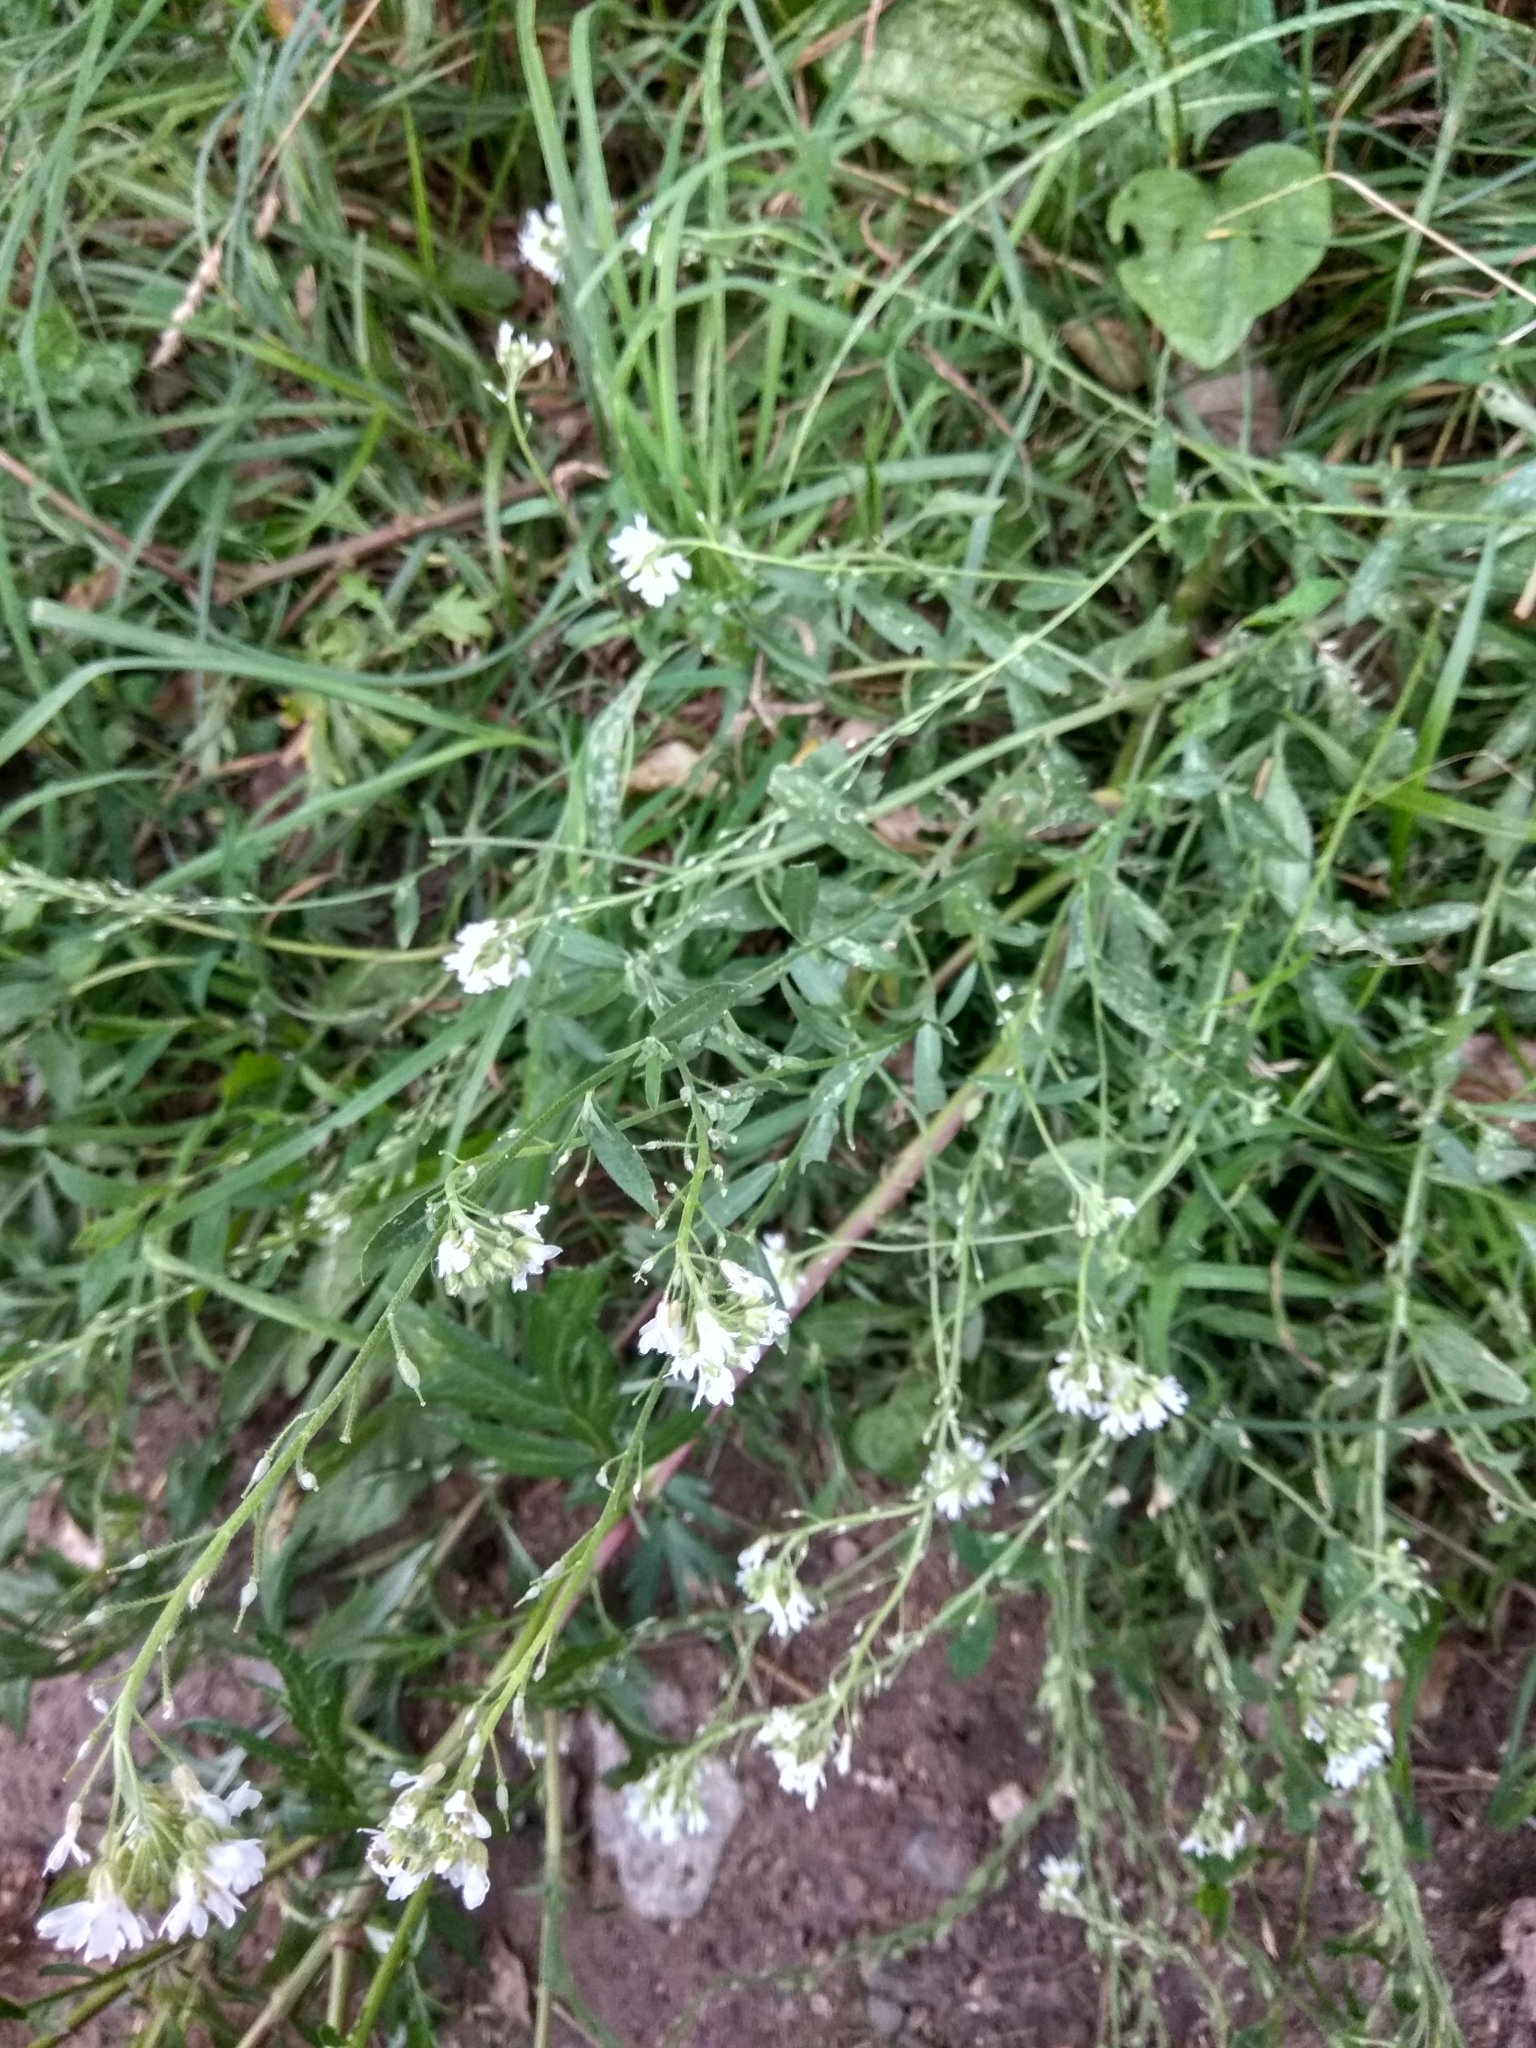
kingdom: Plantae
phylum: Tracheophyta
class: Magnoliopsida
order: Brassicales
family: Brassicaceae
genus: Berteroa
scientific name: Berteroa incana
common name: Hoary alison
